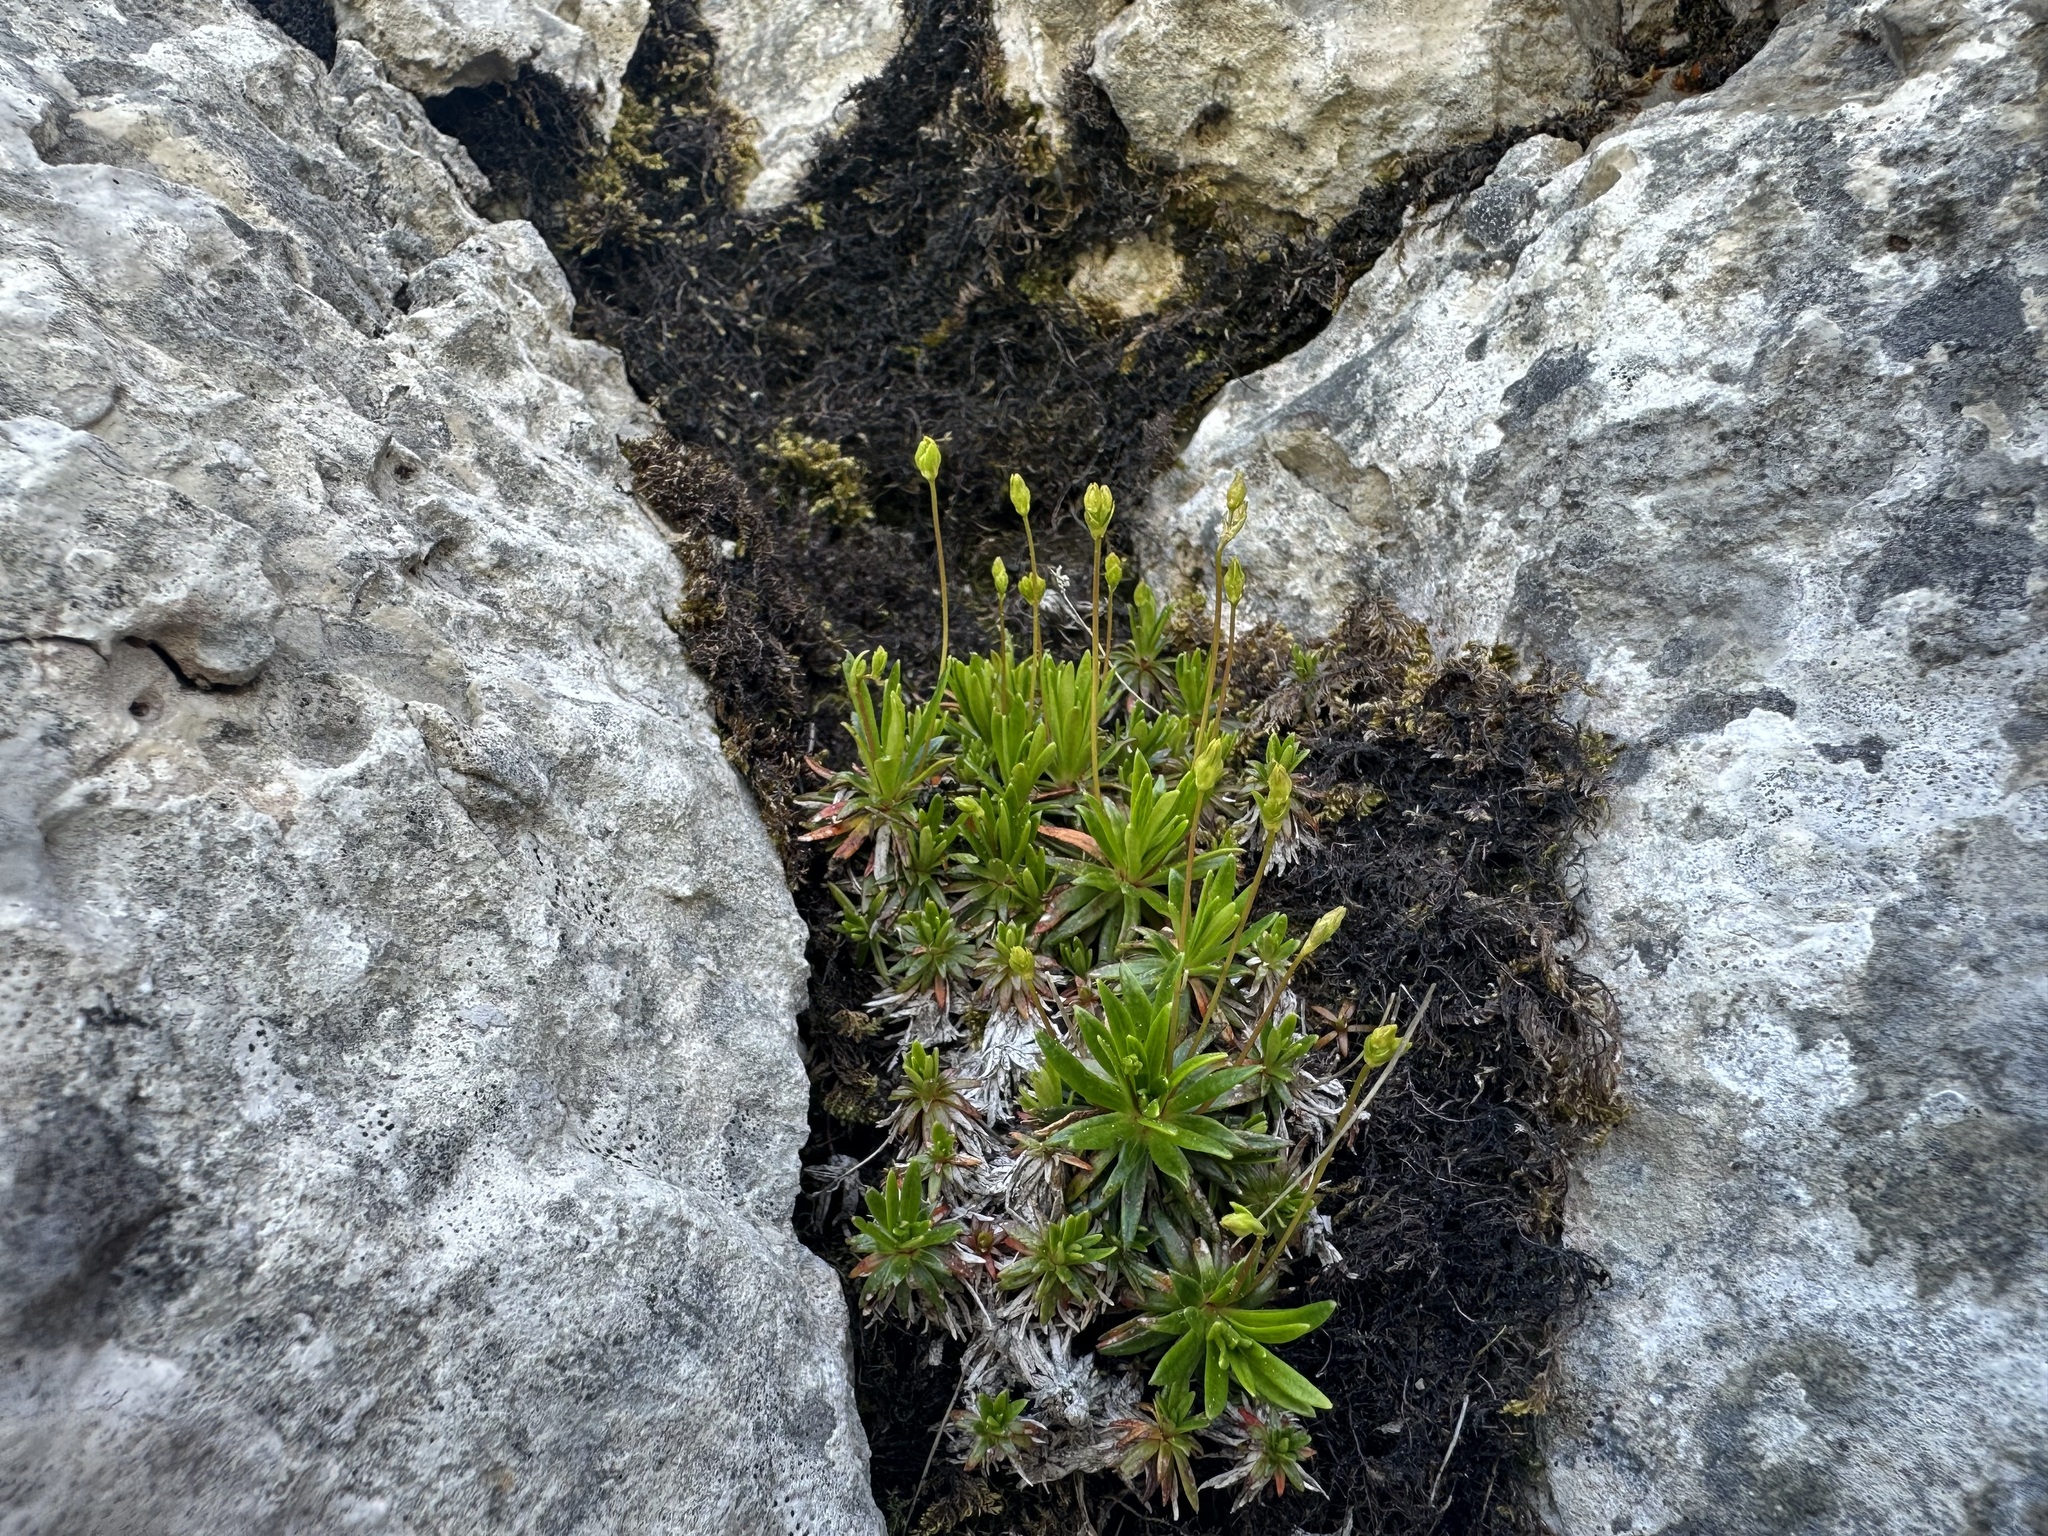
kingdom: Plantae
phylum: Tracheophyta
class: Magnoliopsida
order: Ericales
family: Primulaceae
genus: Androsace
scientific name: Androsace lactea
